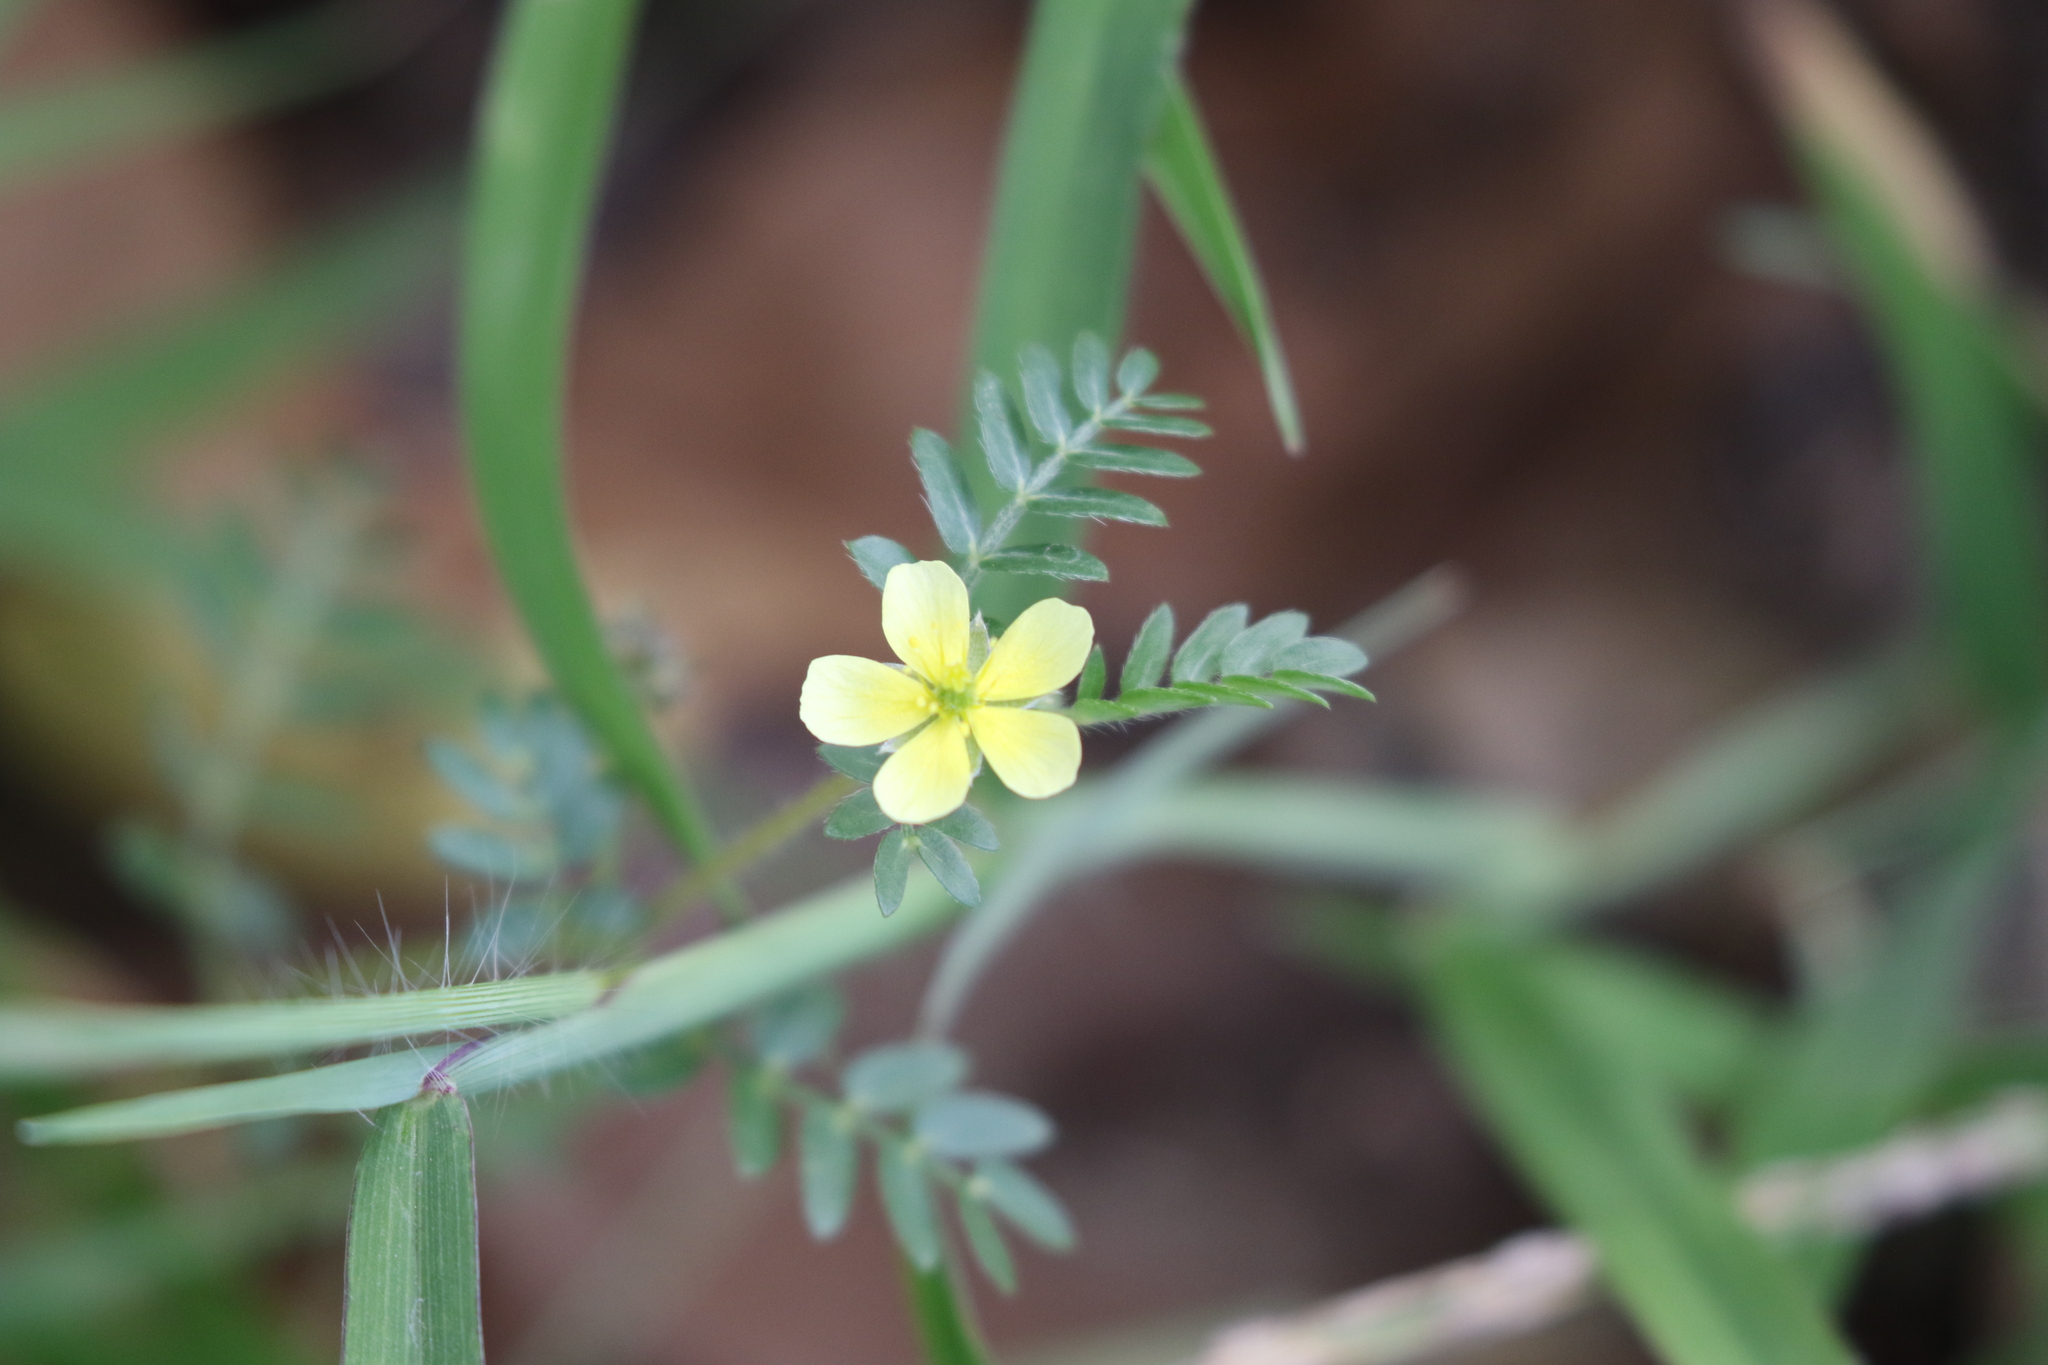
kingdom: Plantae
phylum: Tracheophyta
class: Magnoliopsida
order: Zygophyllales
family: Zygophyllaceae
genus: Tribulus
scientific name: Tribulus terrestris
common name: Puncturevine
